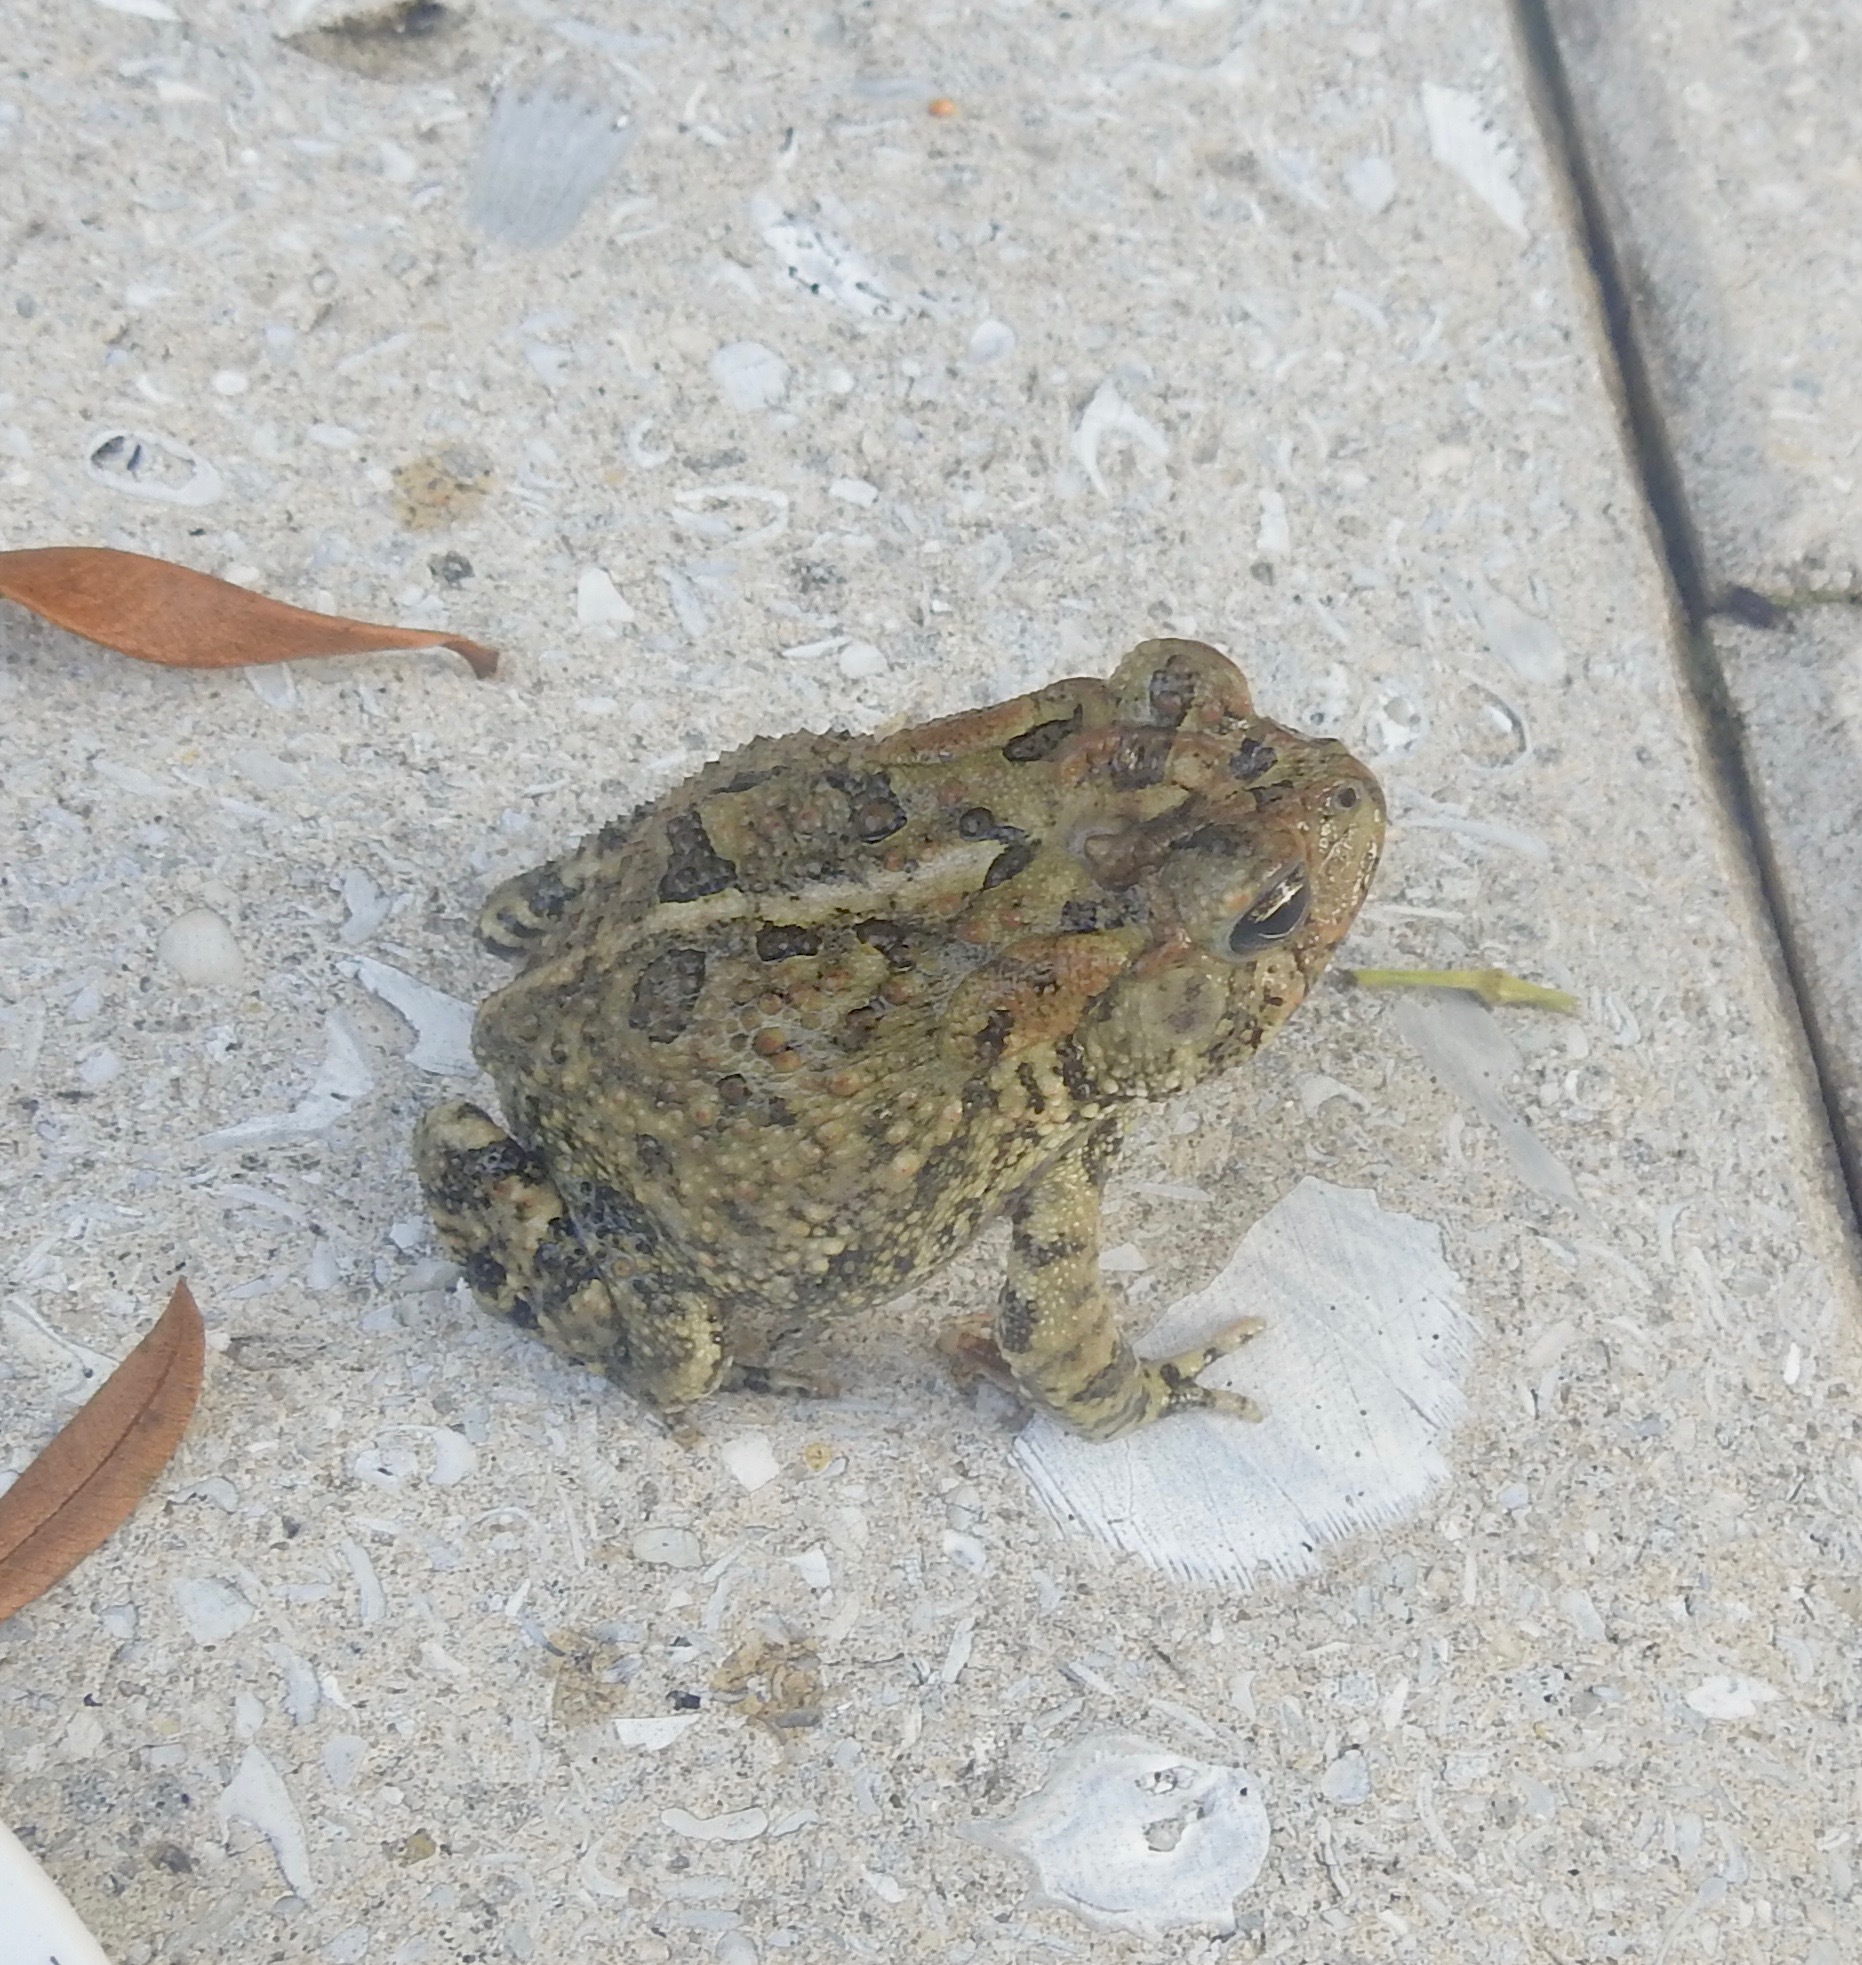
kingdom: Animalia
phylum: Chordata
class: Amphibia
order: Anura
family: Bufonidae
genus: Anaxyrus
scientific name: Anaxyrus terrestris
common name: Southern toad
